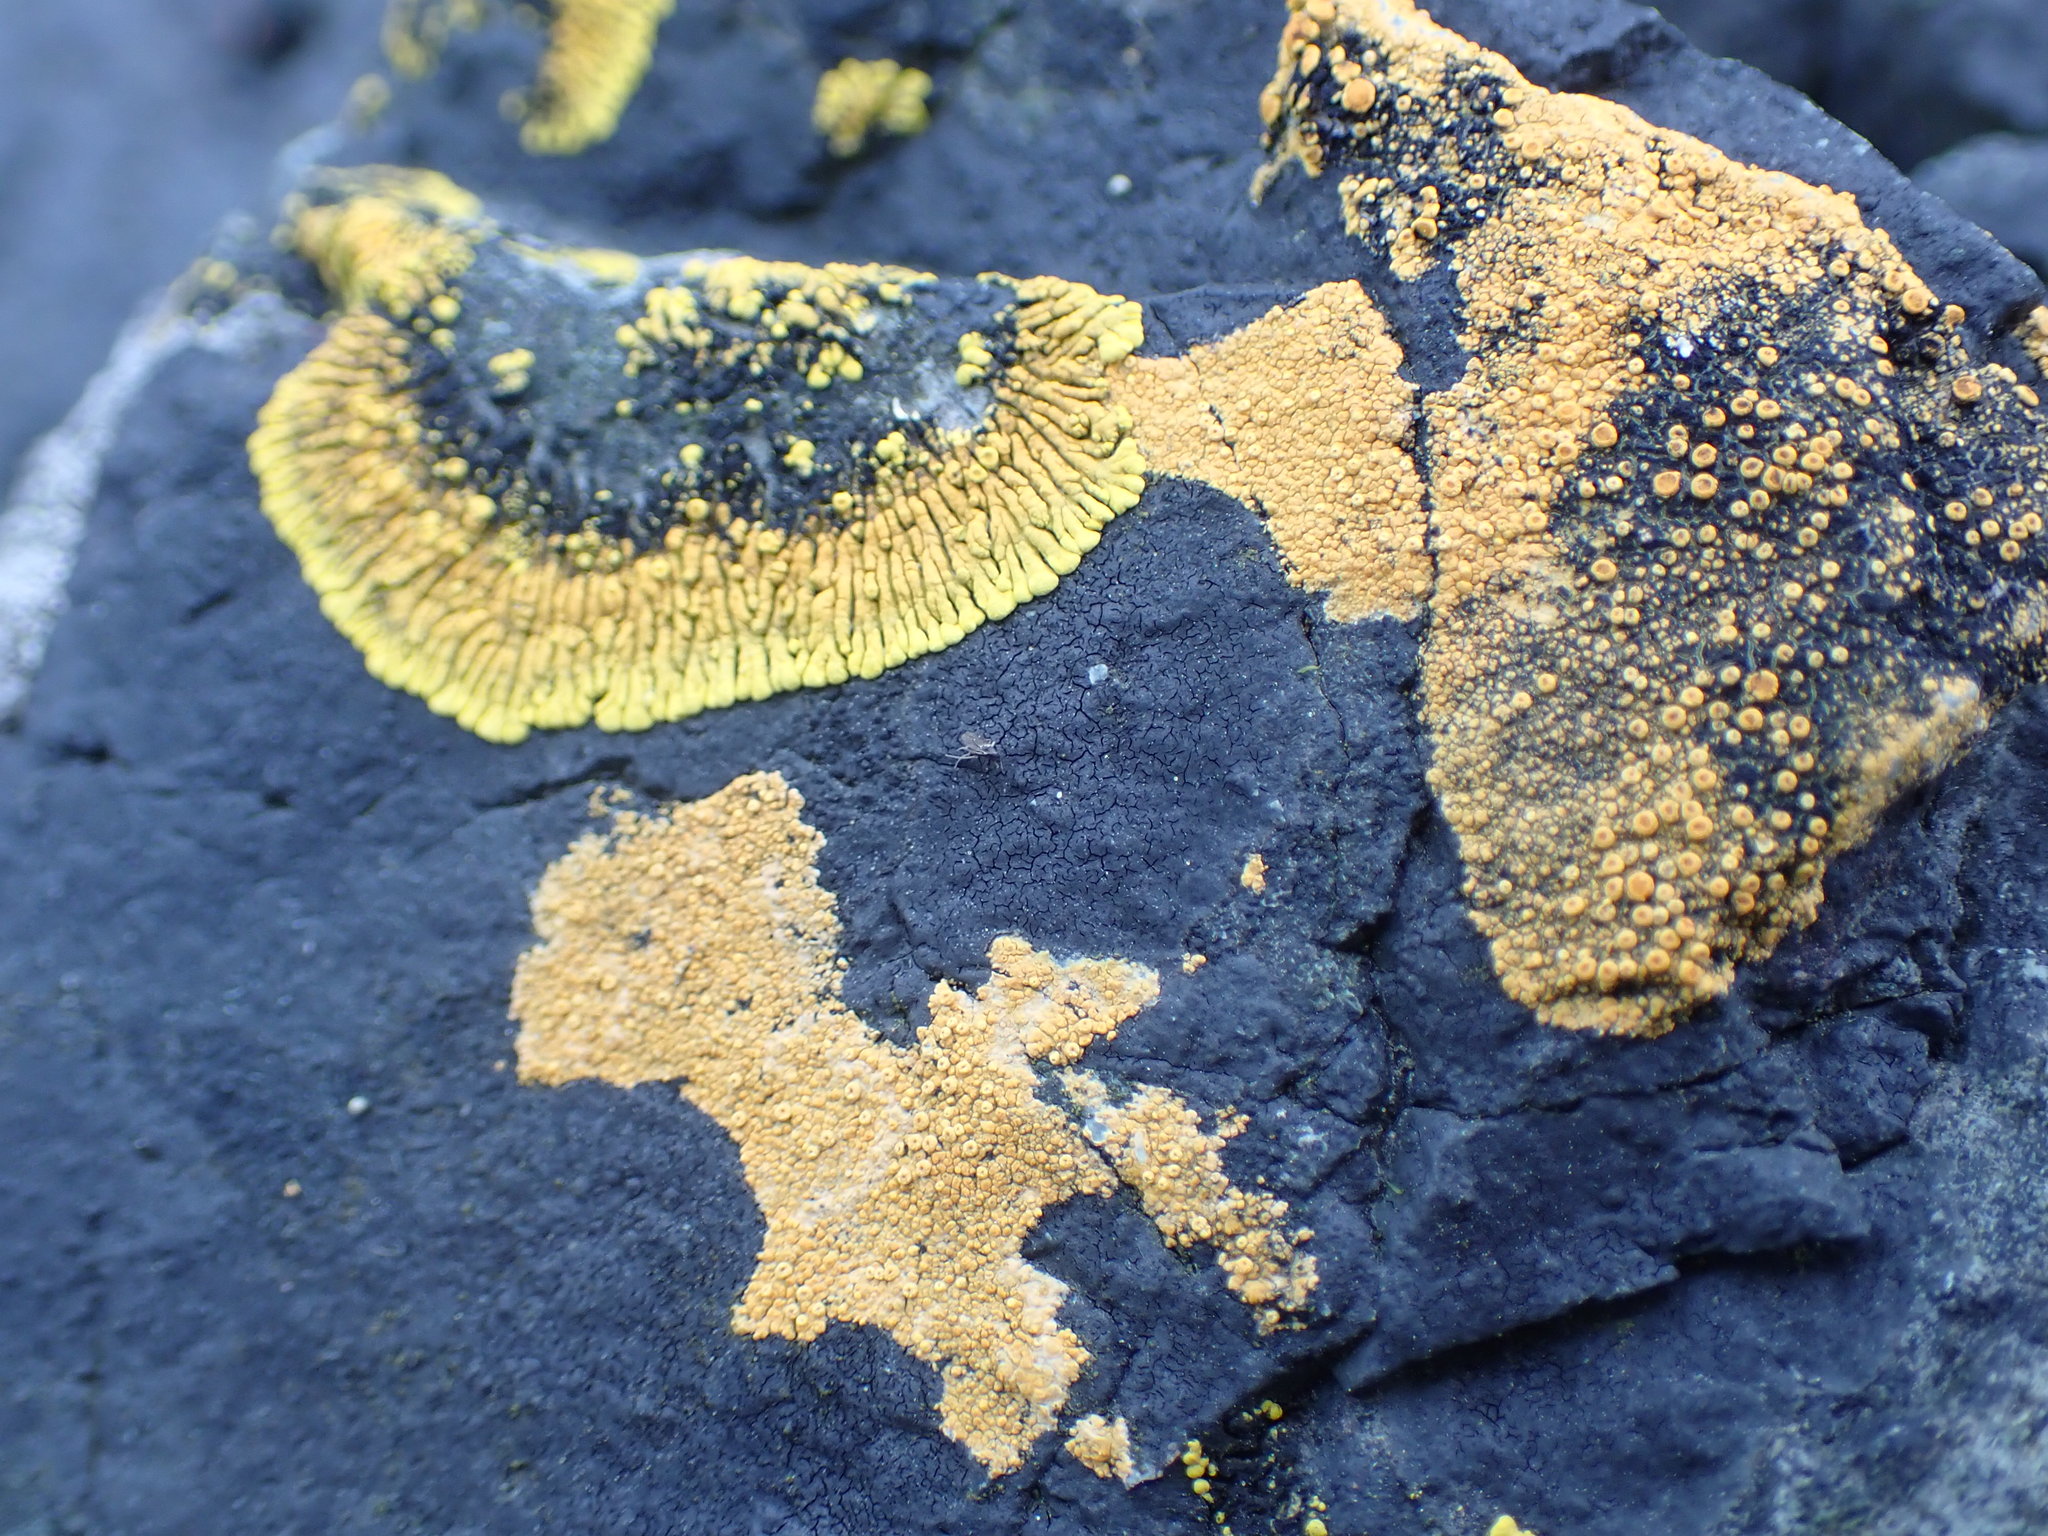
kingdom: Fungi
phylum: Ascomycota
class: Lecanoromycetes
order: Teloschistales
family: Teloschistaceae
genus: Verrucoplaca
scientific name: Verrucoplaca verruculifera
